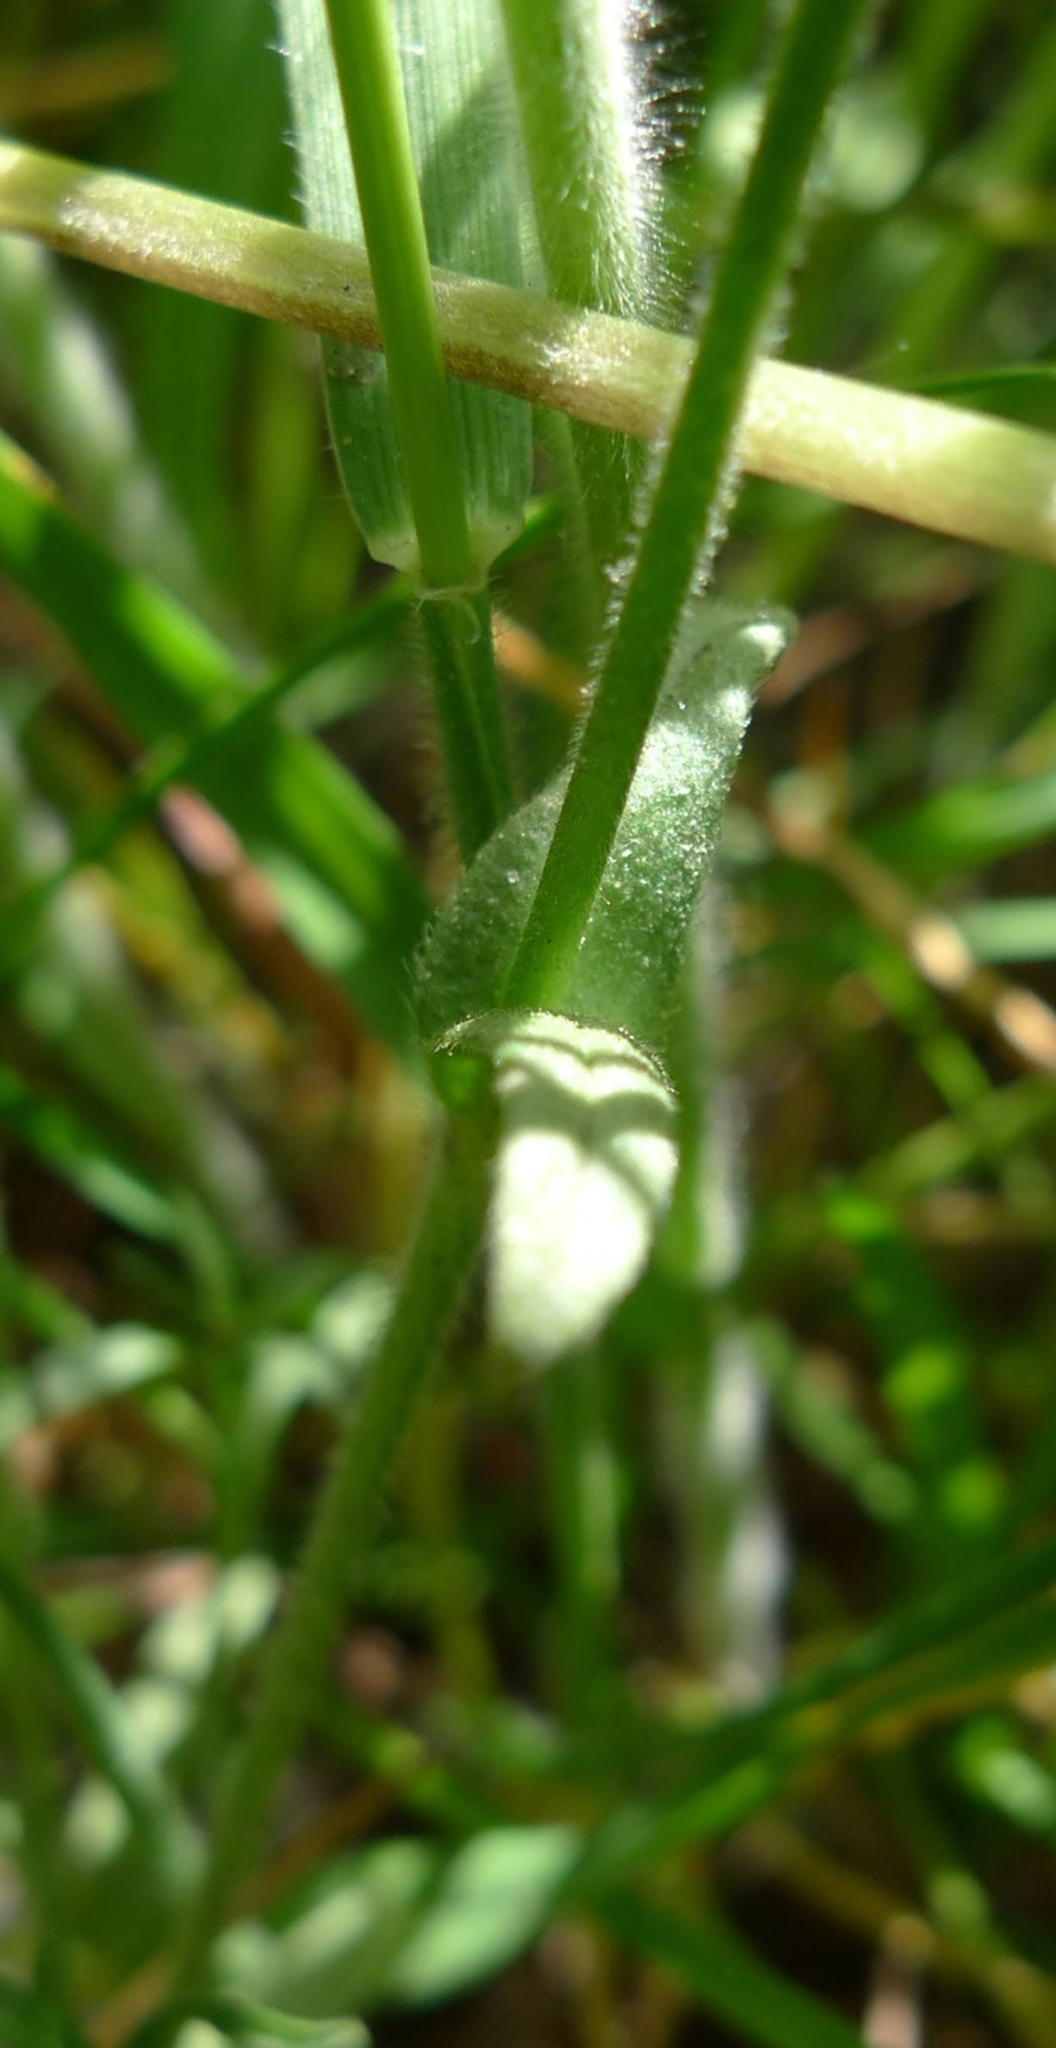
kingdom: Plantae
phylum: Tracheophyta
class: Magnoliopsida
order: Caryophyllales
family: Caryophyllaceae
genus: Rabelera
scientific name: Rabelera holostea
